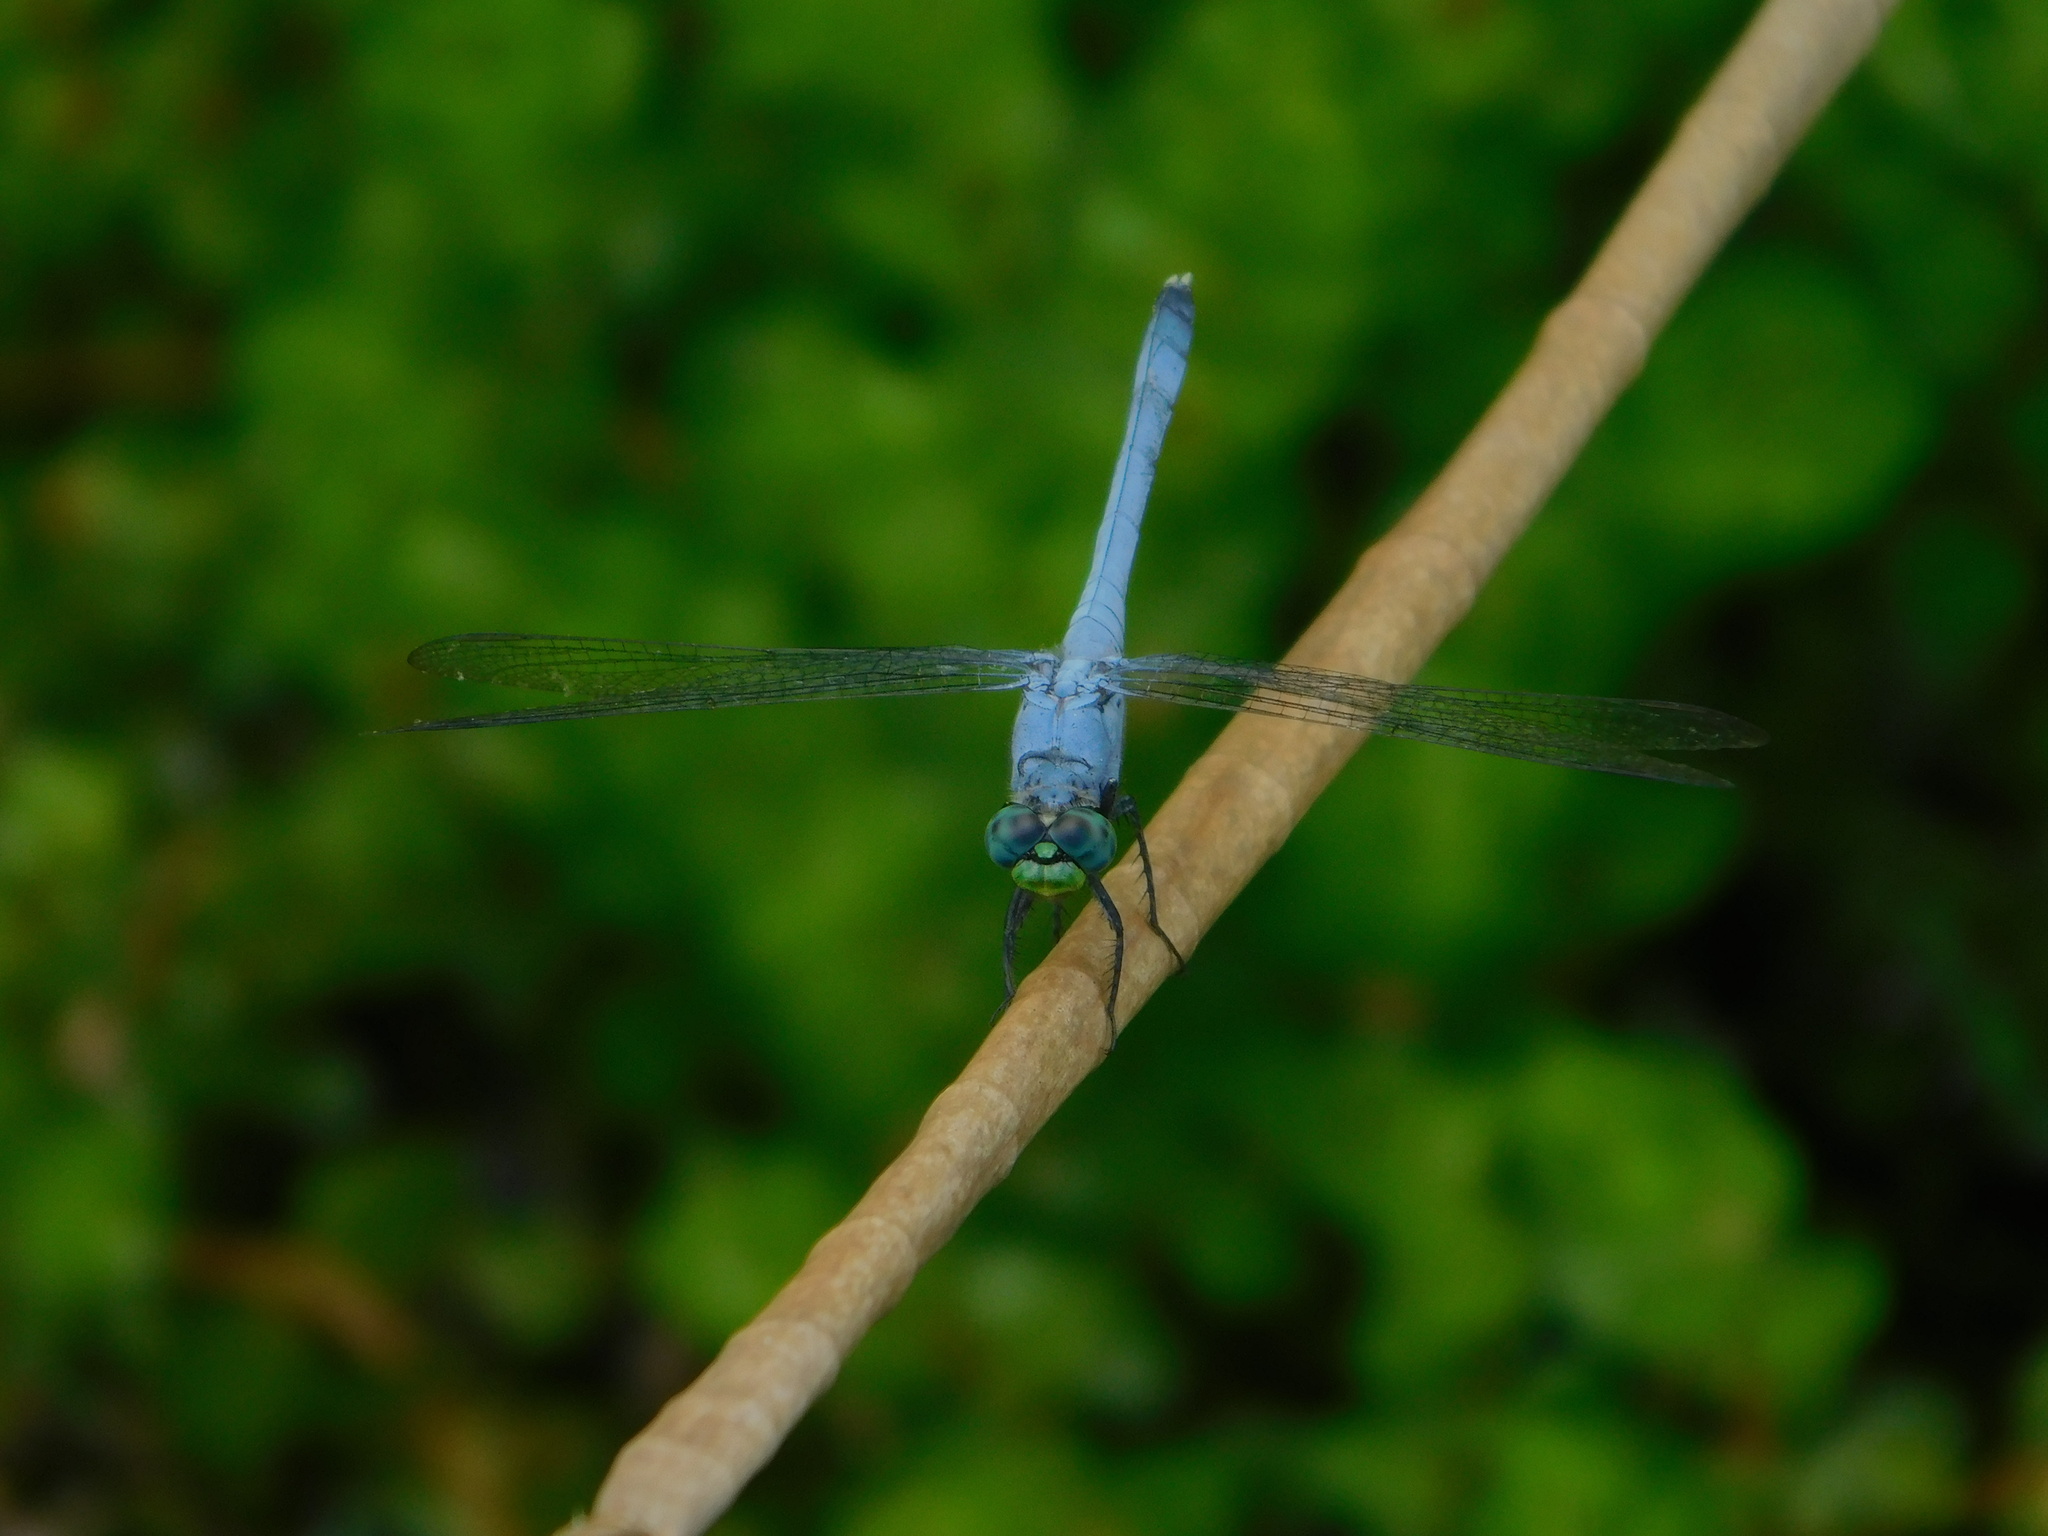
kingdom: Animalia
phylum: Arthropoda
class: Insecta
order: Odonata
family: Libellulidae
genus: Erythemis
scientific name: Erythemis simplicicollis
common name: Eastern pondhawk
